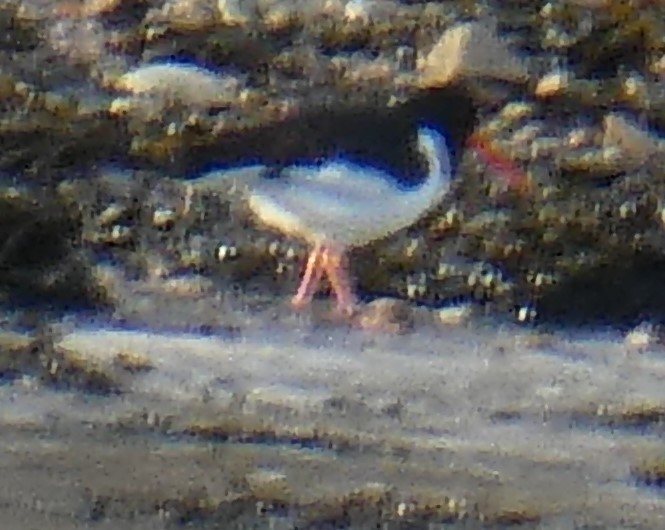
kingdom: Animalia
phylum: Chordata
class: Aves
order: Charadriiformes
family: Haematopodidae
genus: Haematopus
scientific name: Haematopus ostralegus
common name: Eurasian oystercatcher
